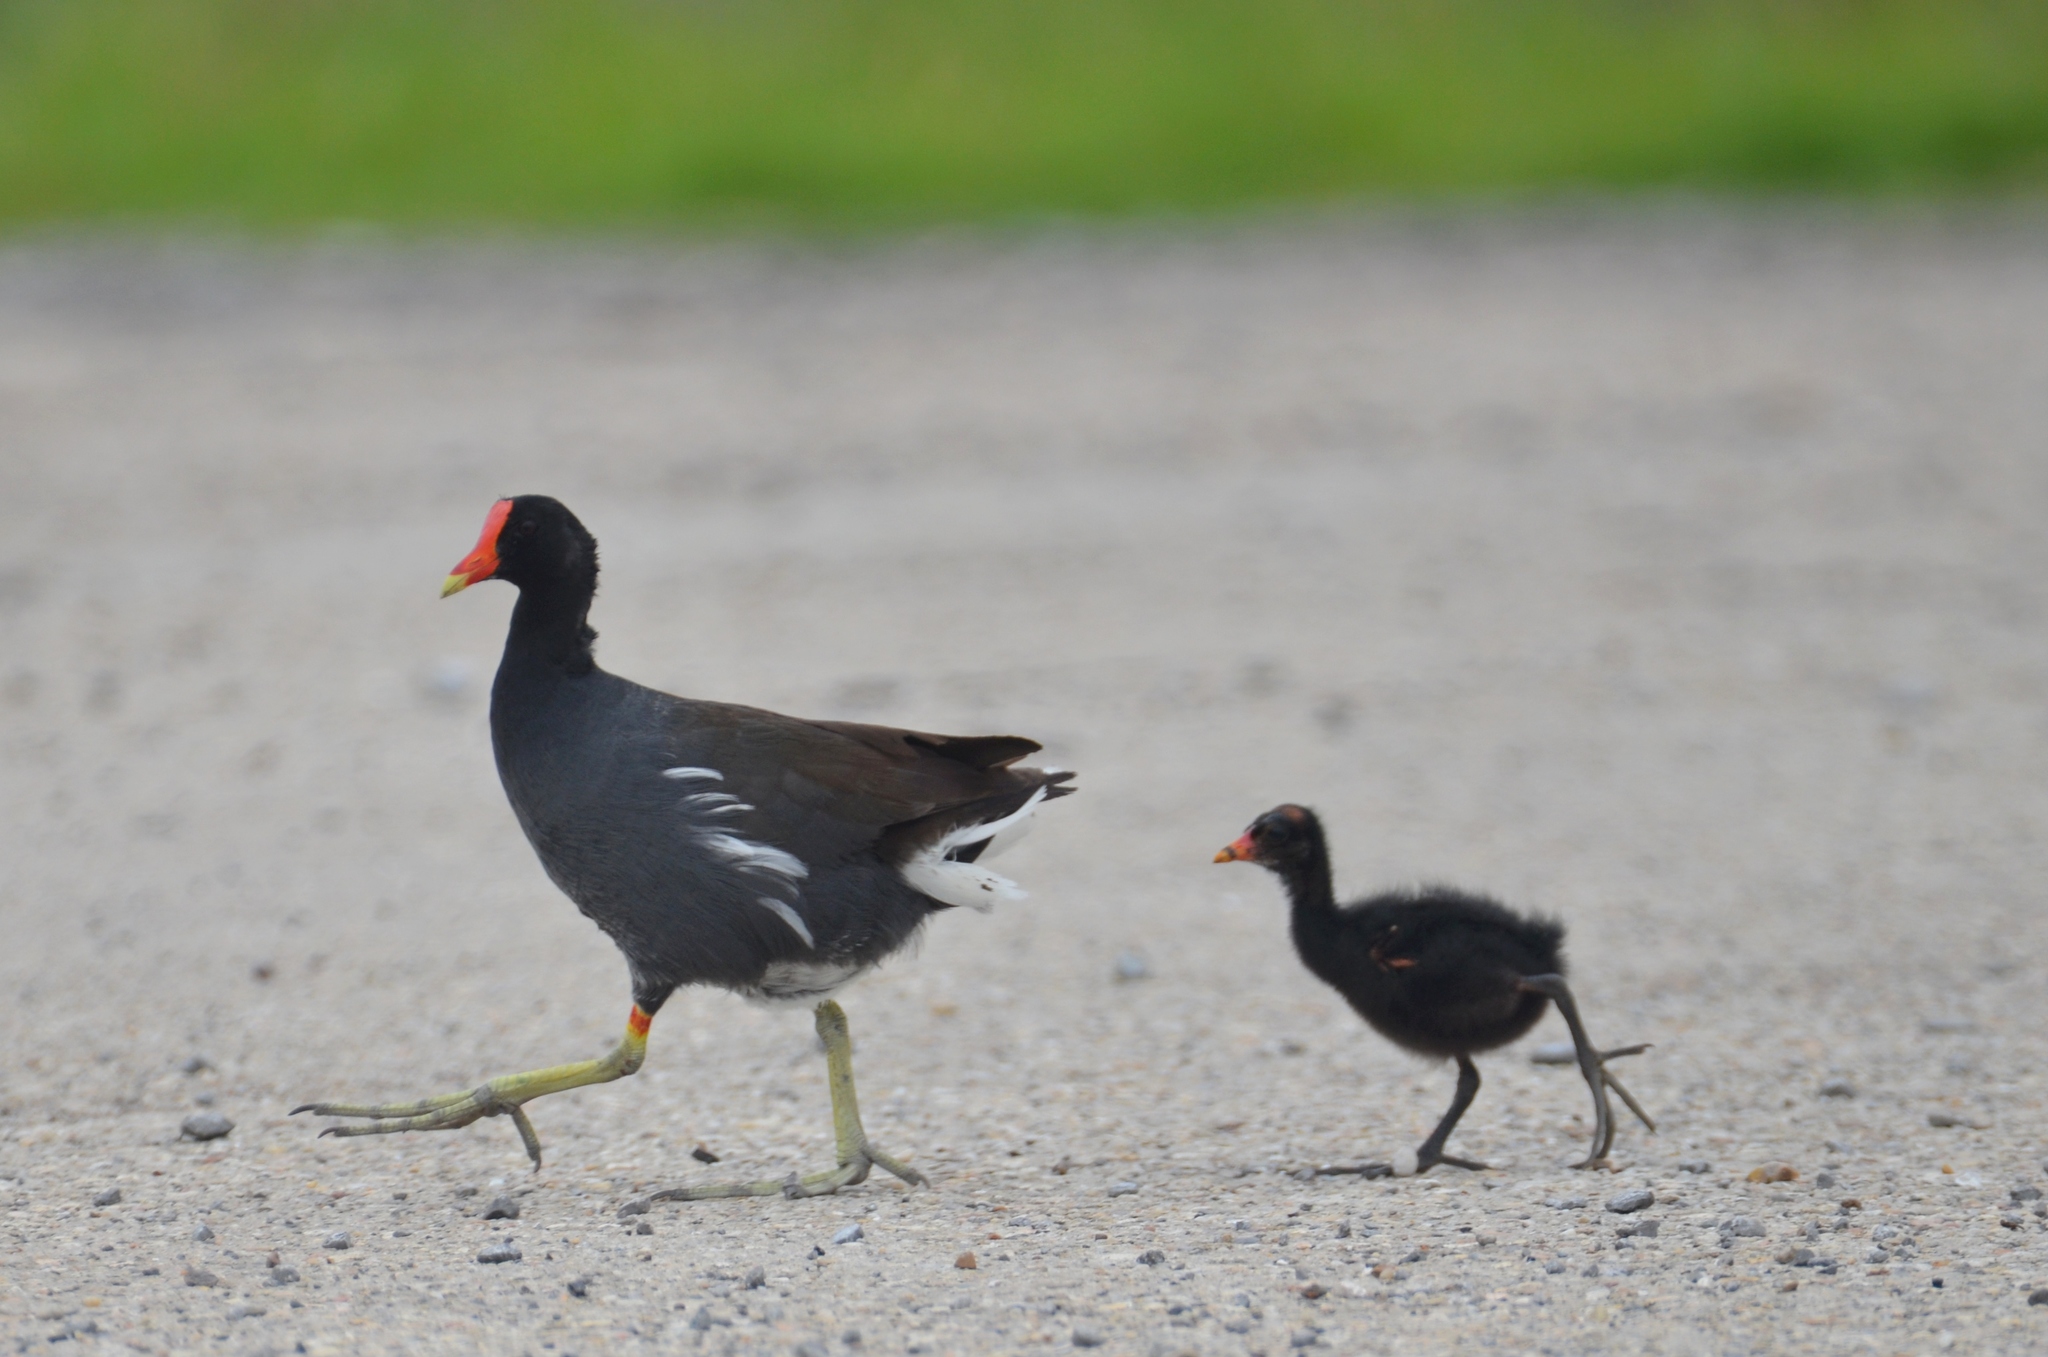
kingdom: Animalia
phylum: Chordata
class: Aves
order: Gruiformes
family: Rallidae
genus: Gallinula
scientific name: Gallinula chloropus
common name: Common moorhen
